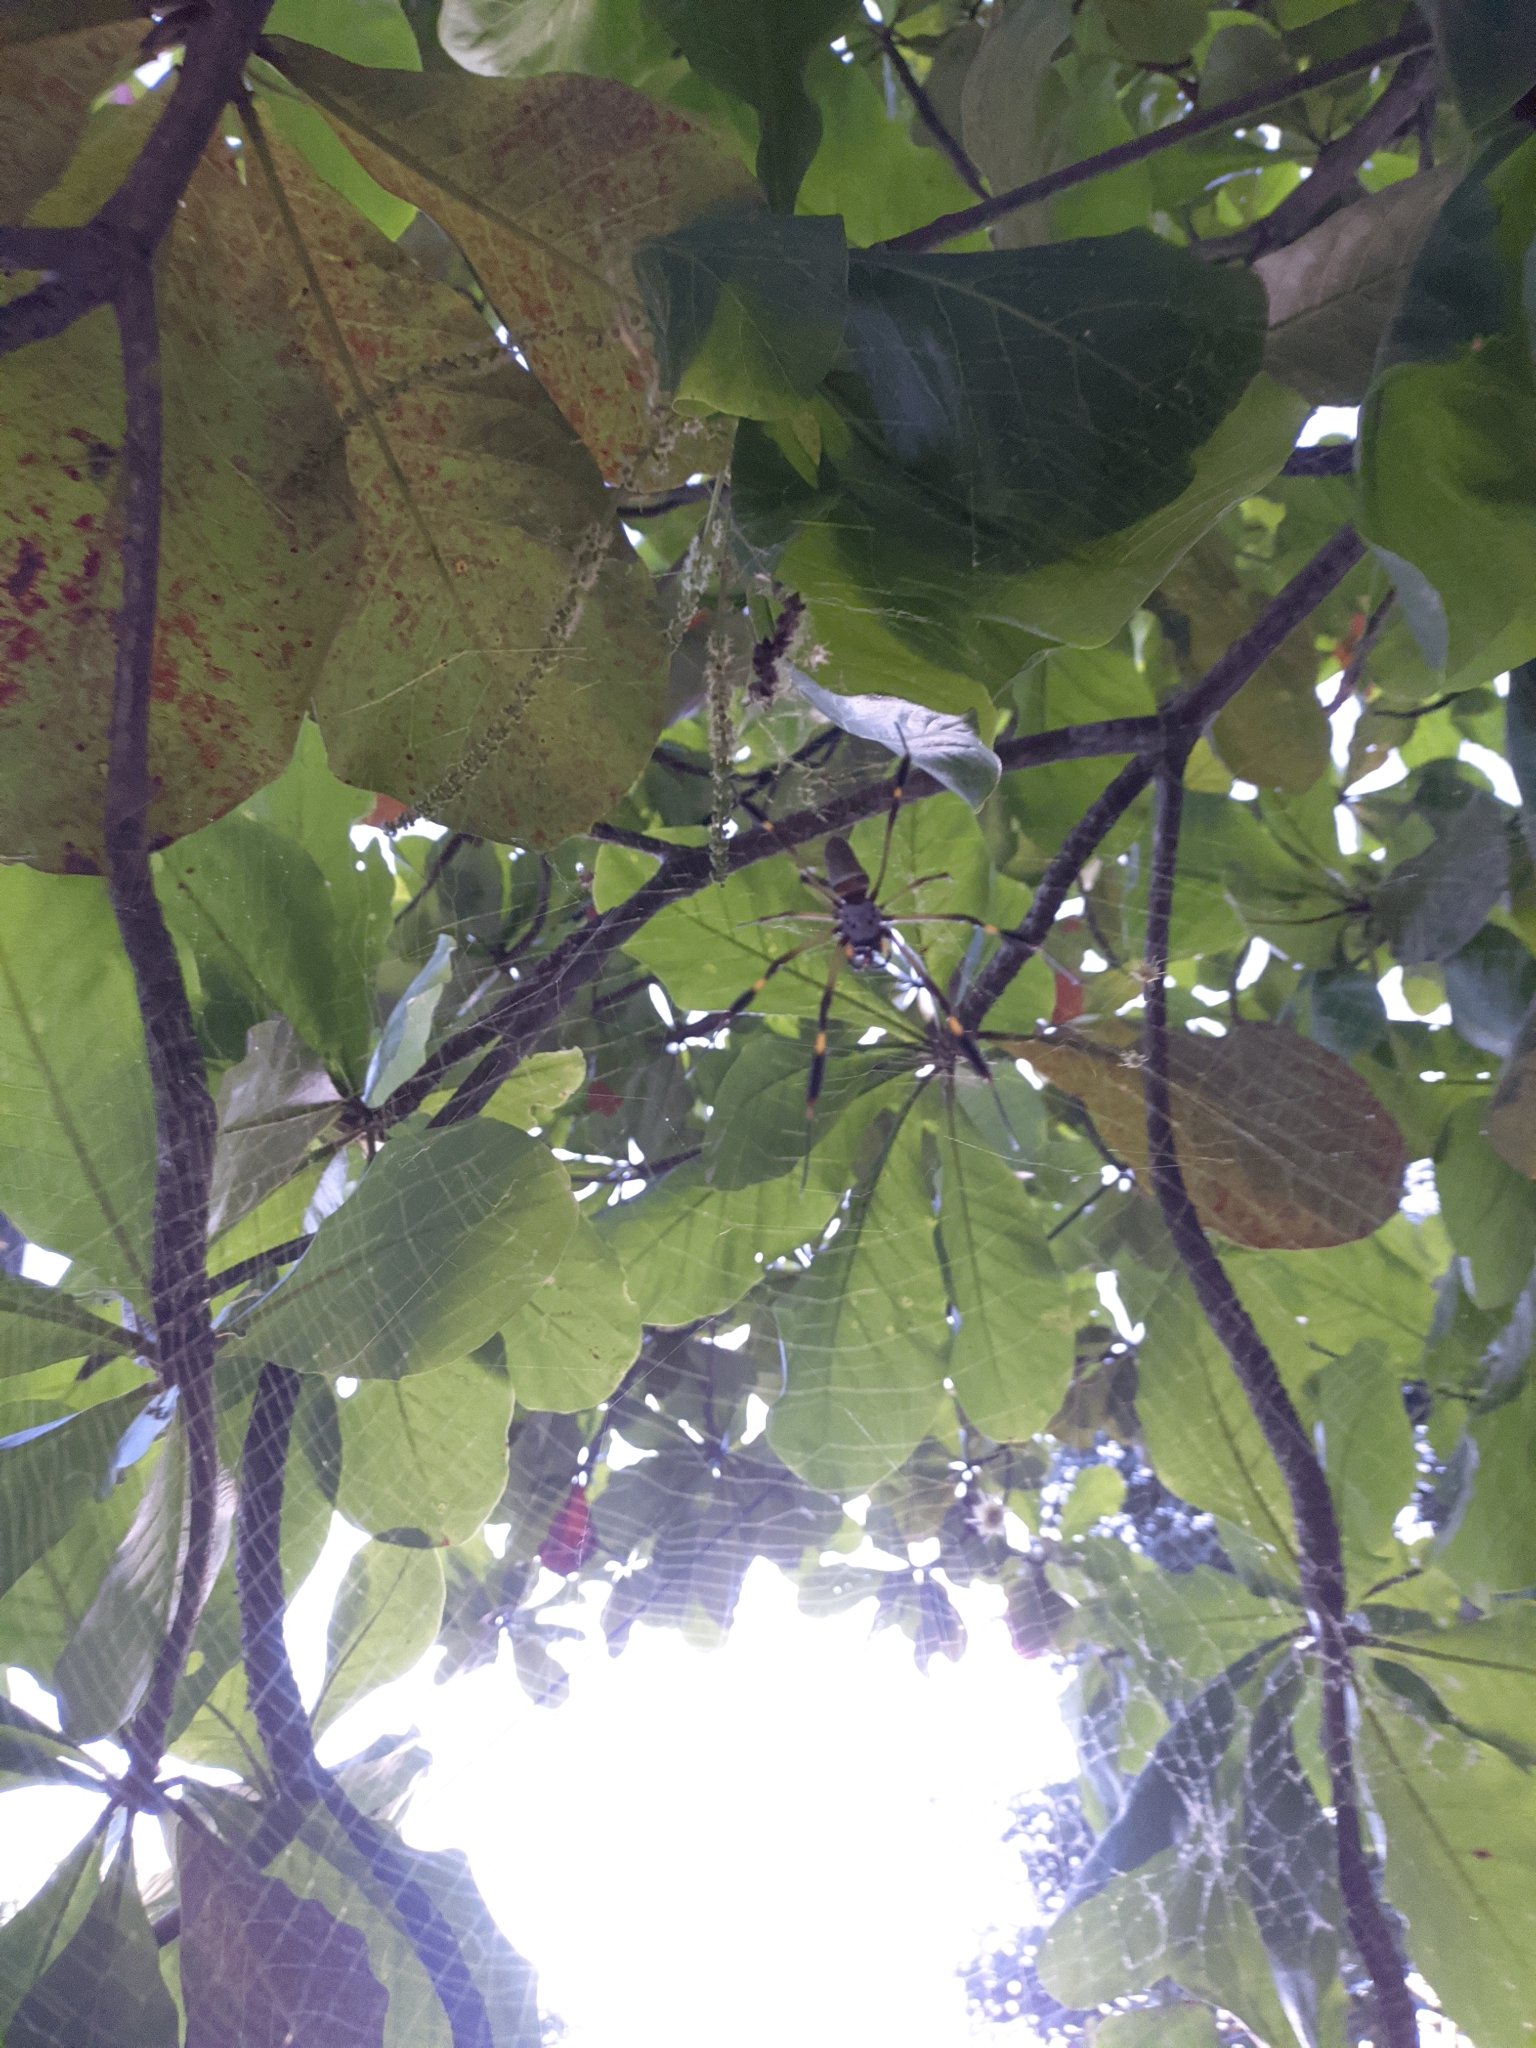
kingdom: Animalia
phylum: Arthropoda
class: Arachnida
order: Araneae
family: Araneidae
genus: Trichonephila
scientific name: Trichonephila clavipes
